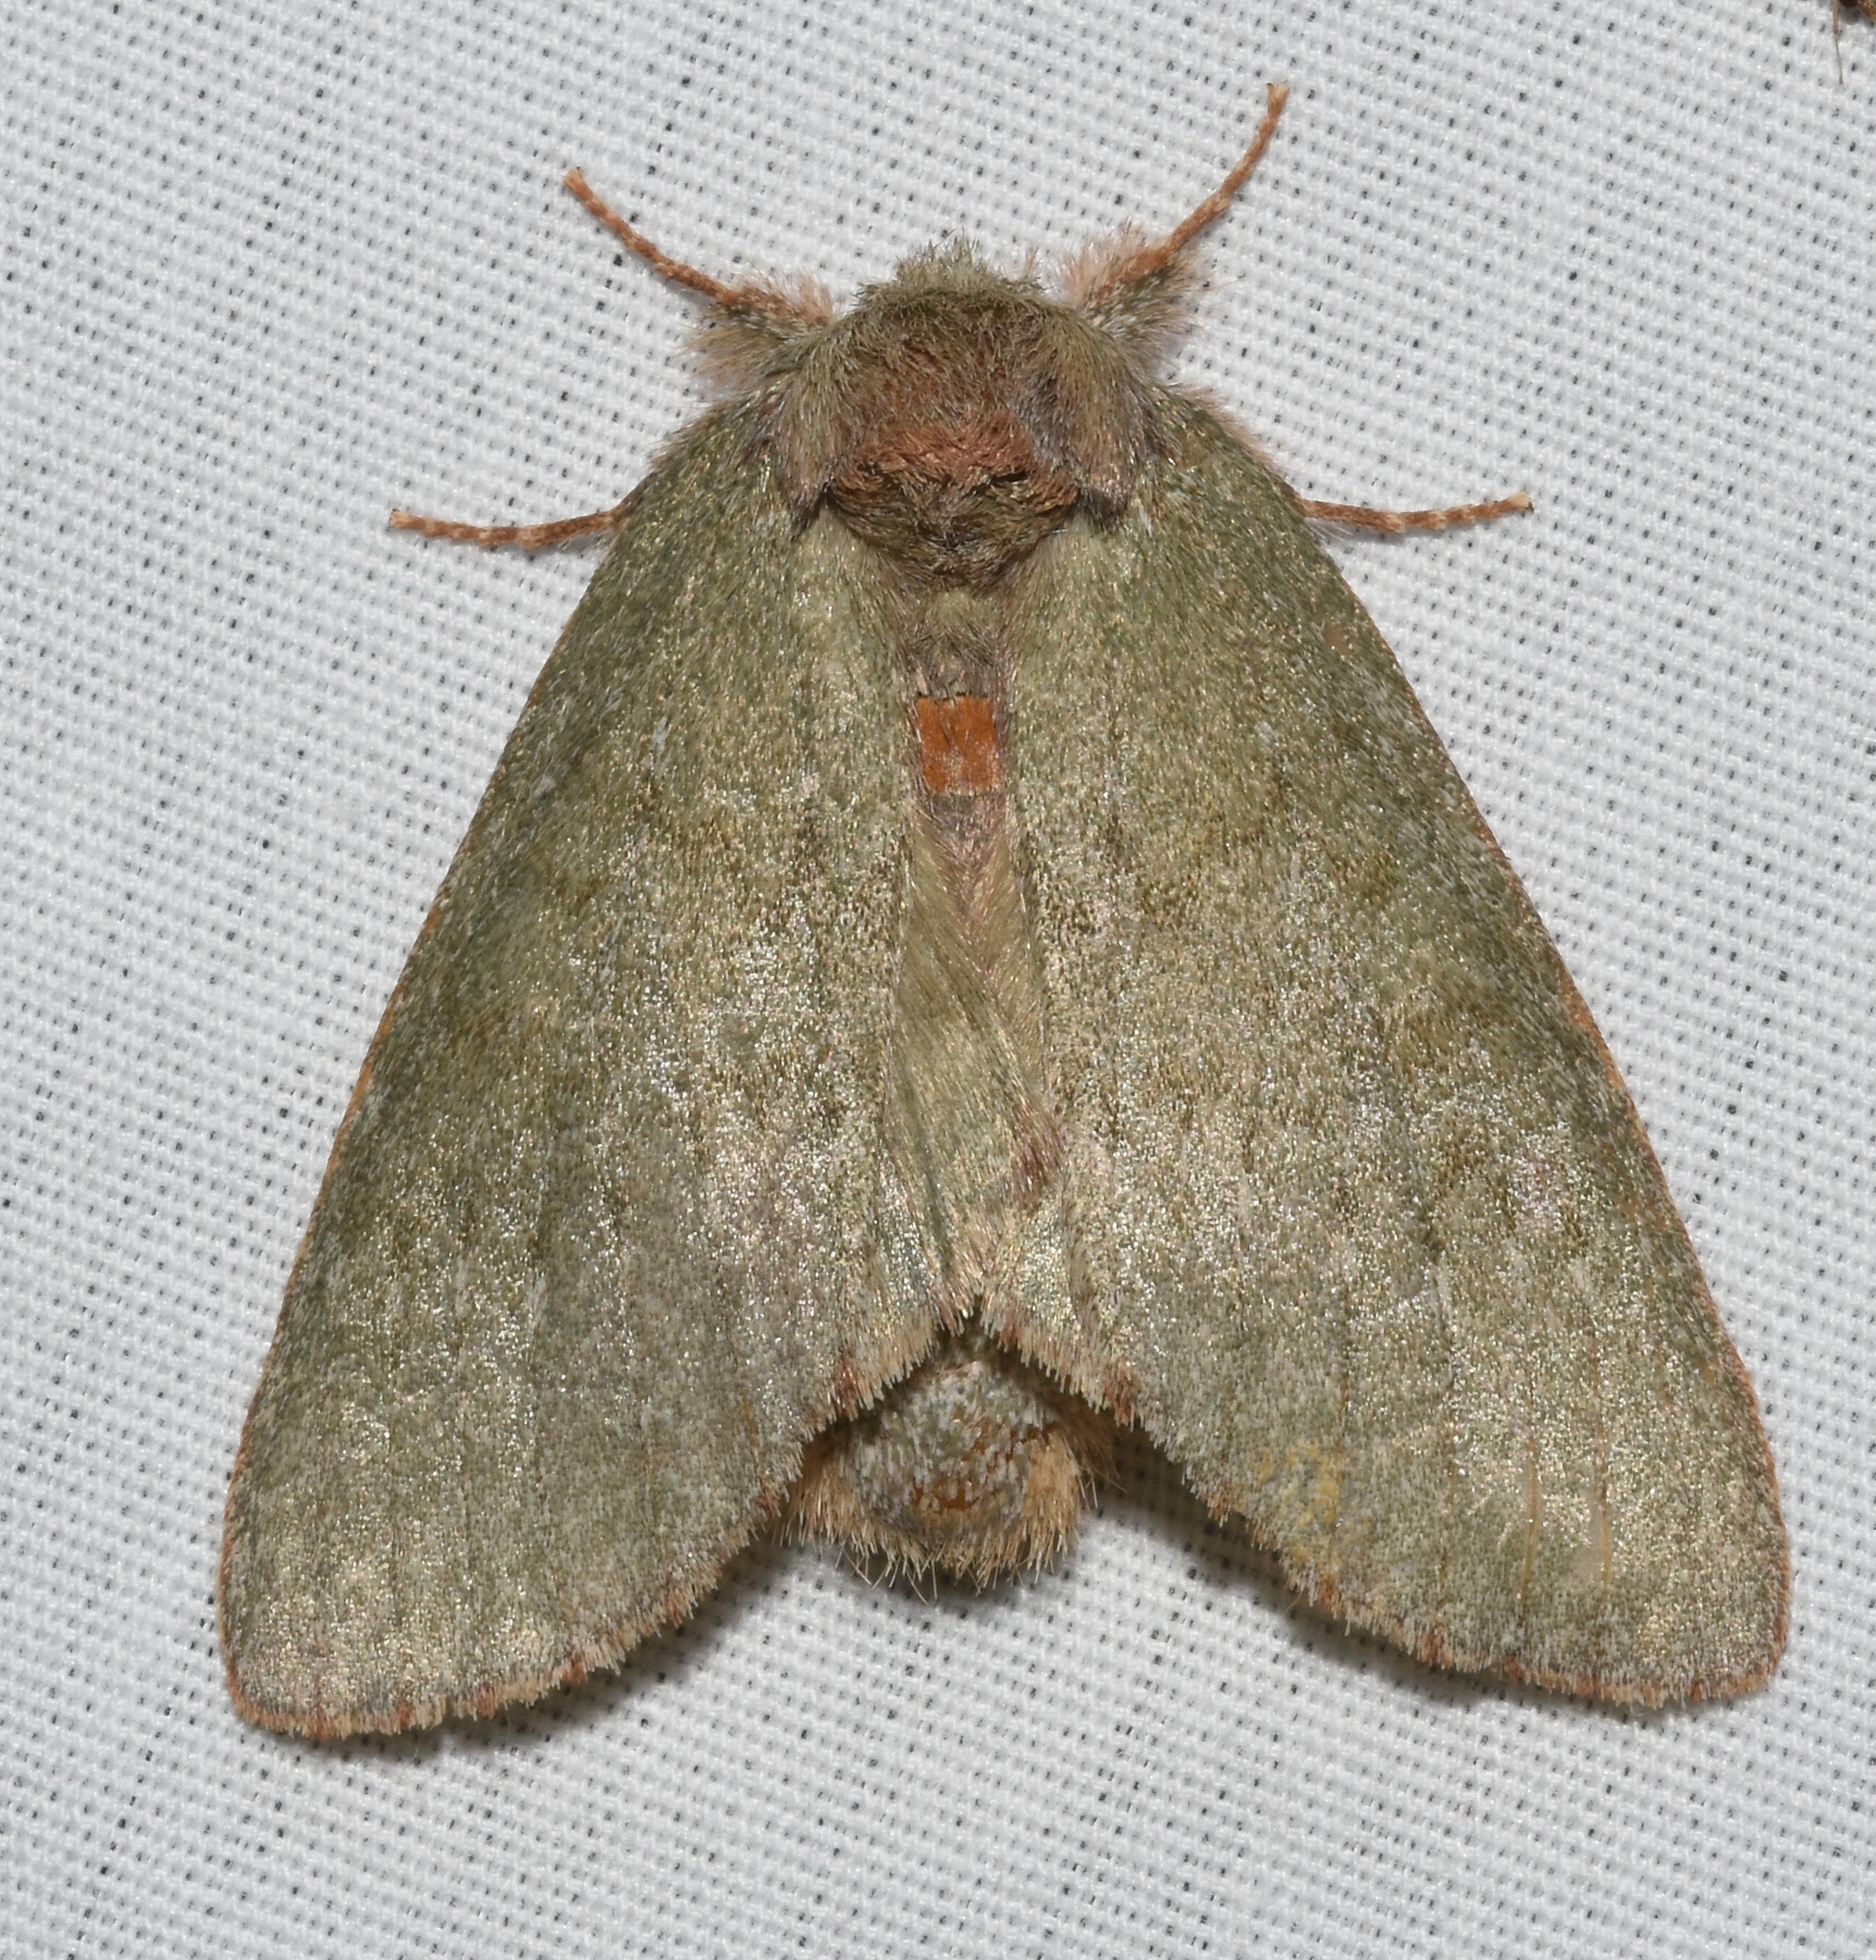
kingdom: Animalia
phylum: Arthropoda
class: Insecta
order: Lepidoptera
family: Notodontidae
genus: Misogada
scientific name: Misogada unicolor
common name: Drab prominent
